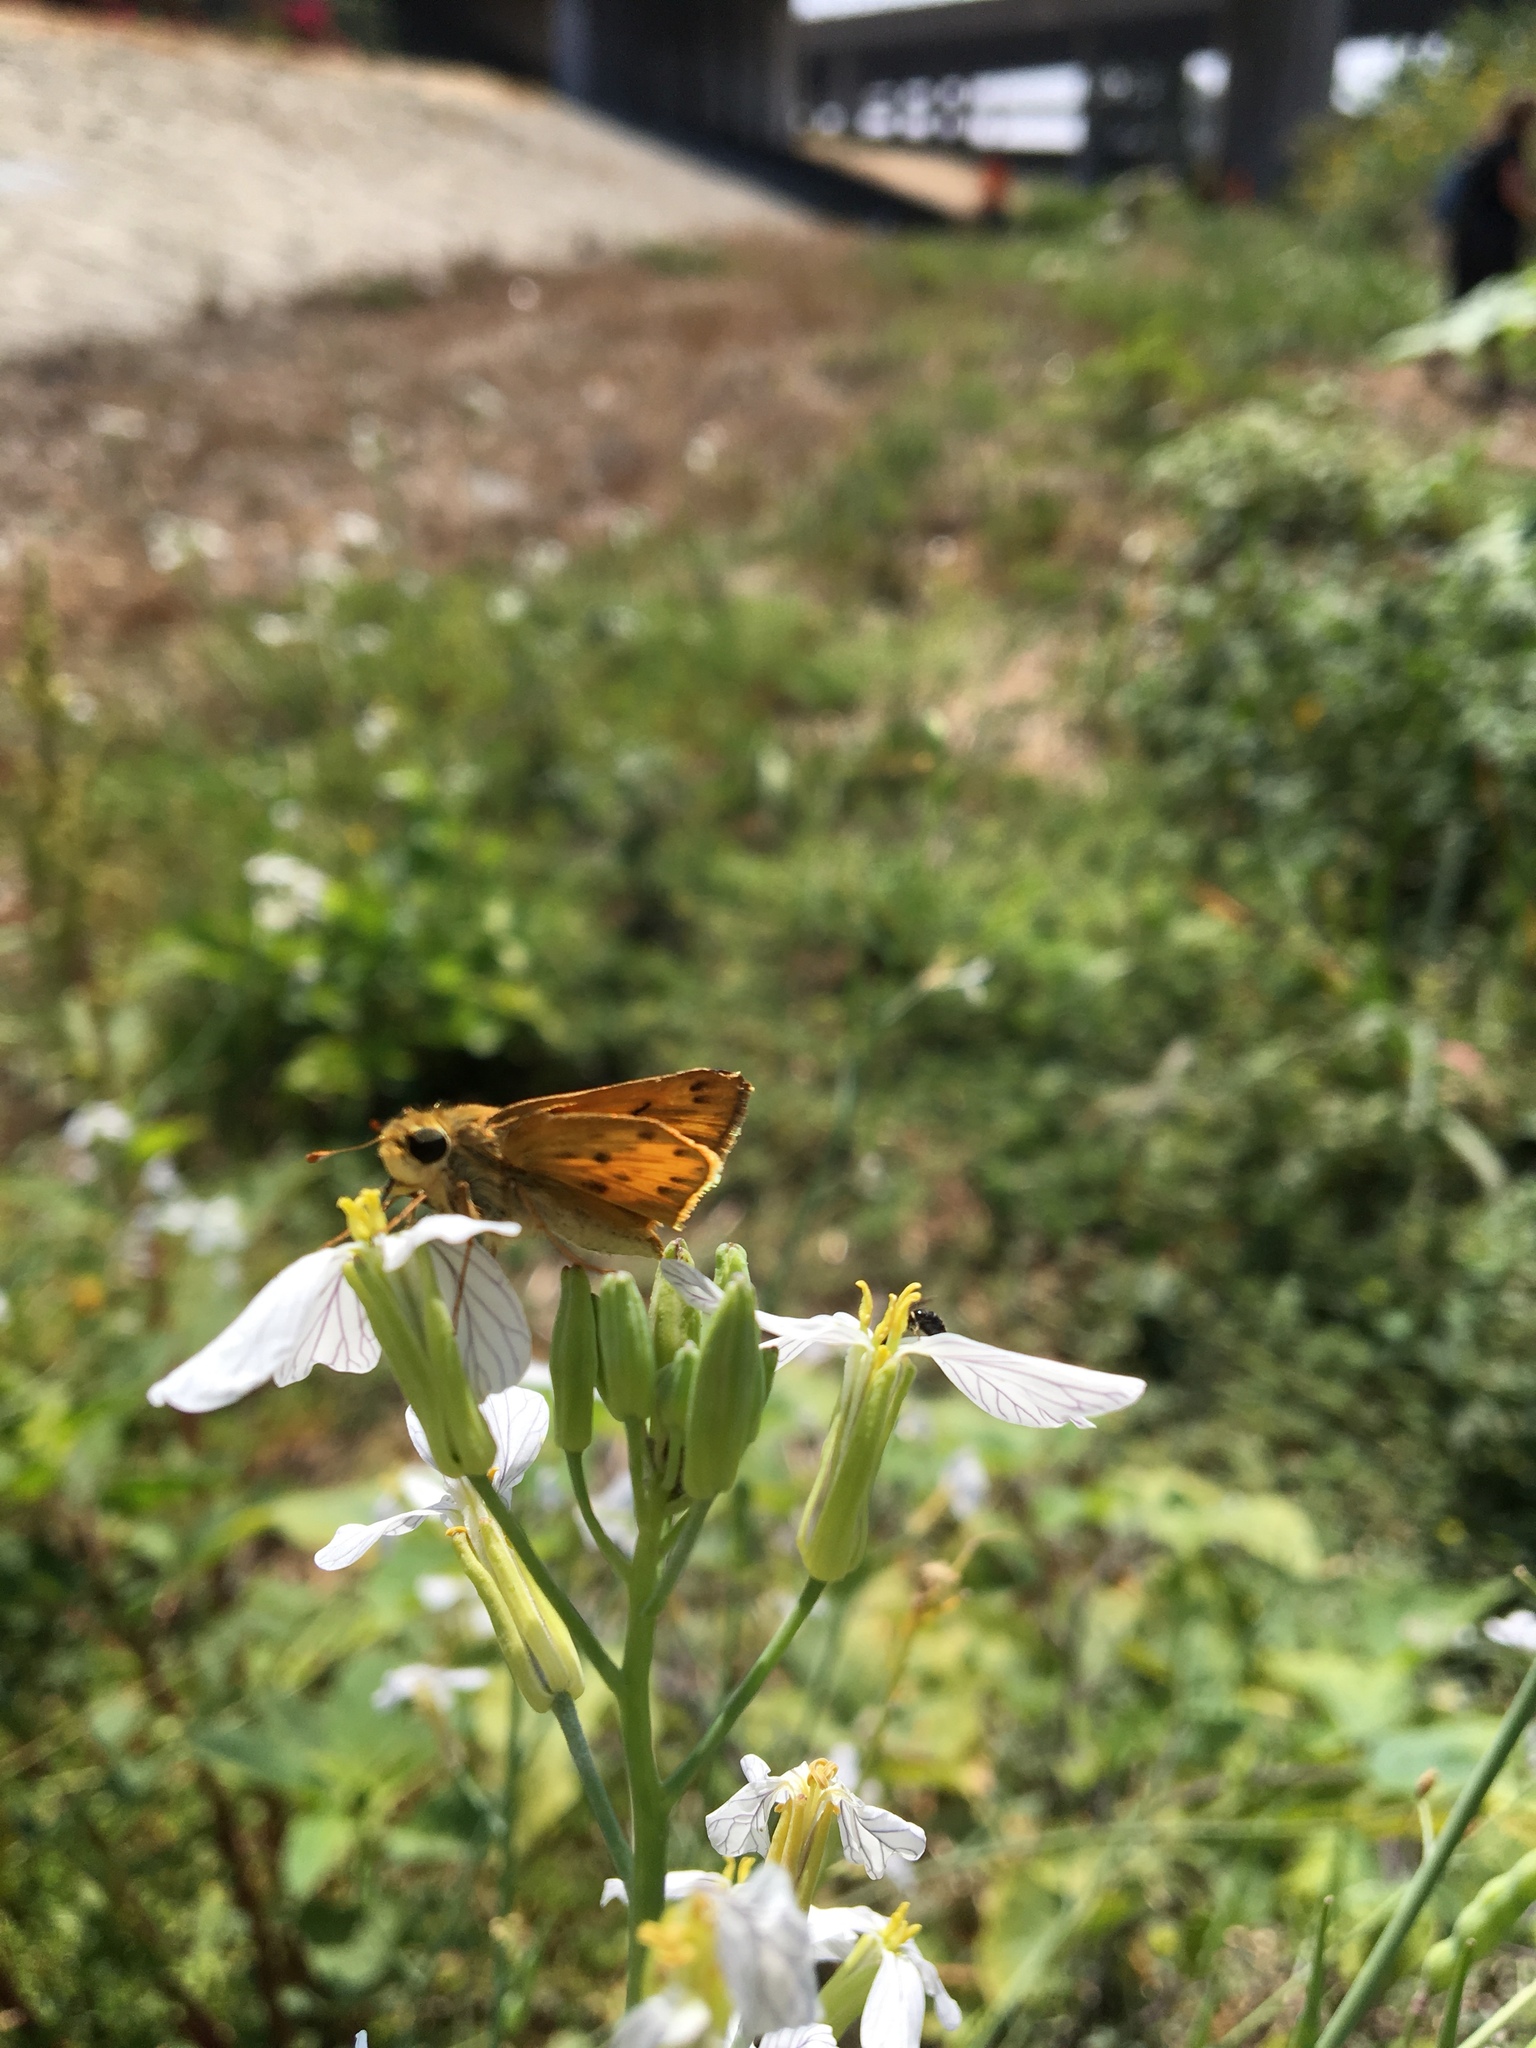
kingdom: Animalia
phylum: Arthropoda
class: Insecta
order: Lepidoptera
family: Hesperiidae
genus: Hylephila
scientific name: Hylephila phyleus
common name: Fiery skipper
